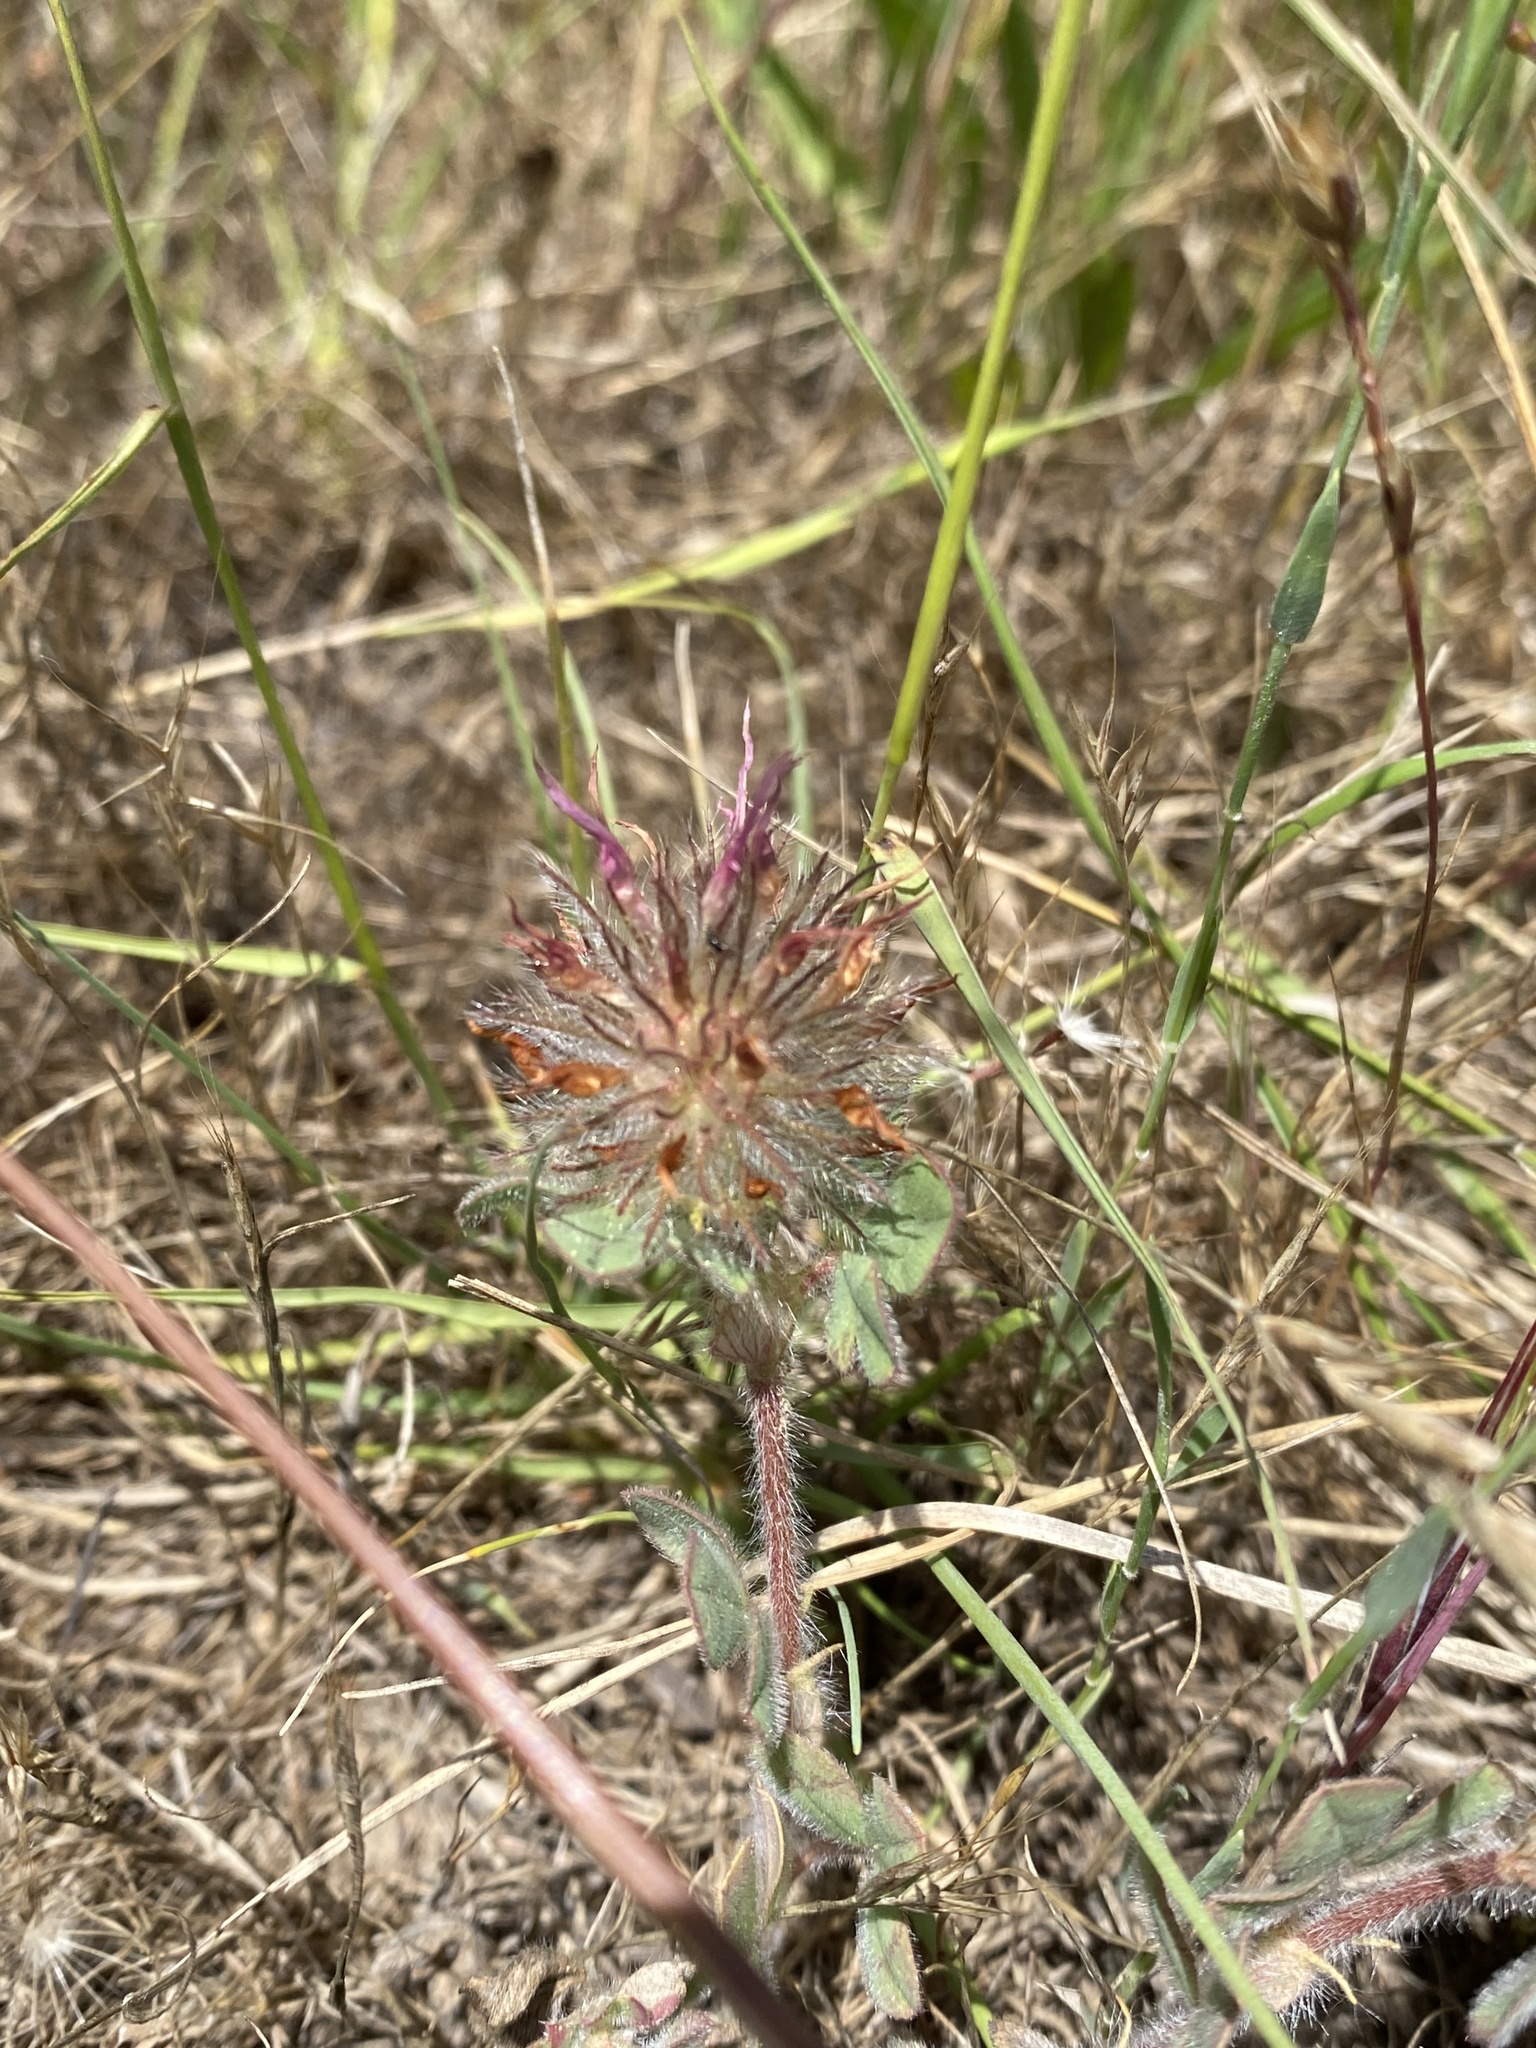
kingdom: Plantae
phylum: Tracheophyta
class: Magnoliopsida
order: Fabales
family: Fabaceae
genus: Trifolium
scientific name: Trifolium hirtum
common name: Rose clover
